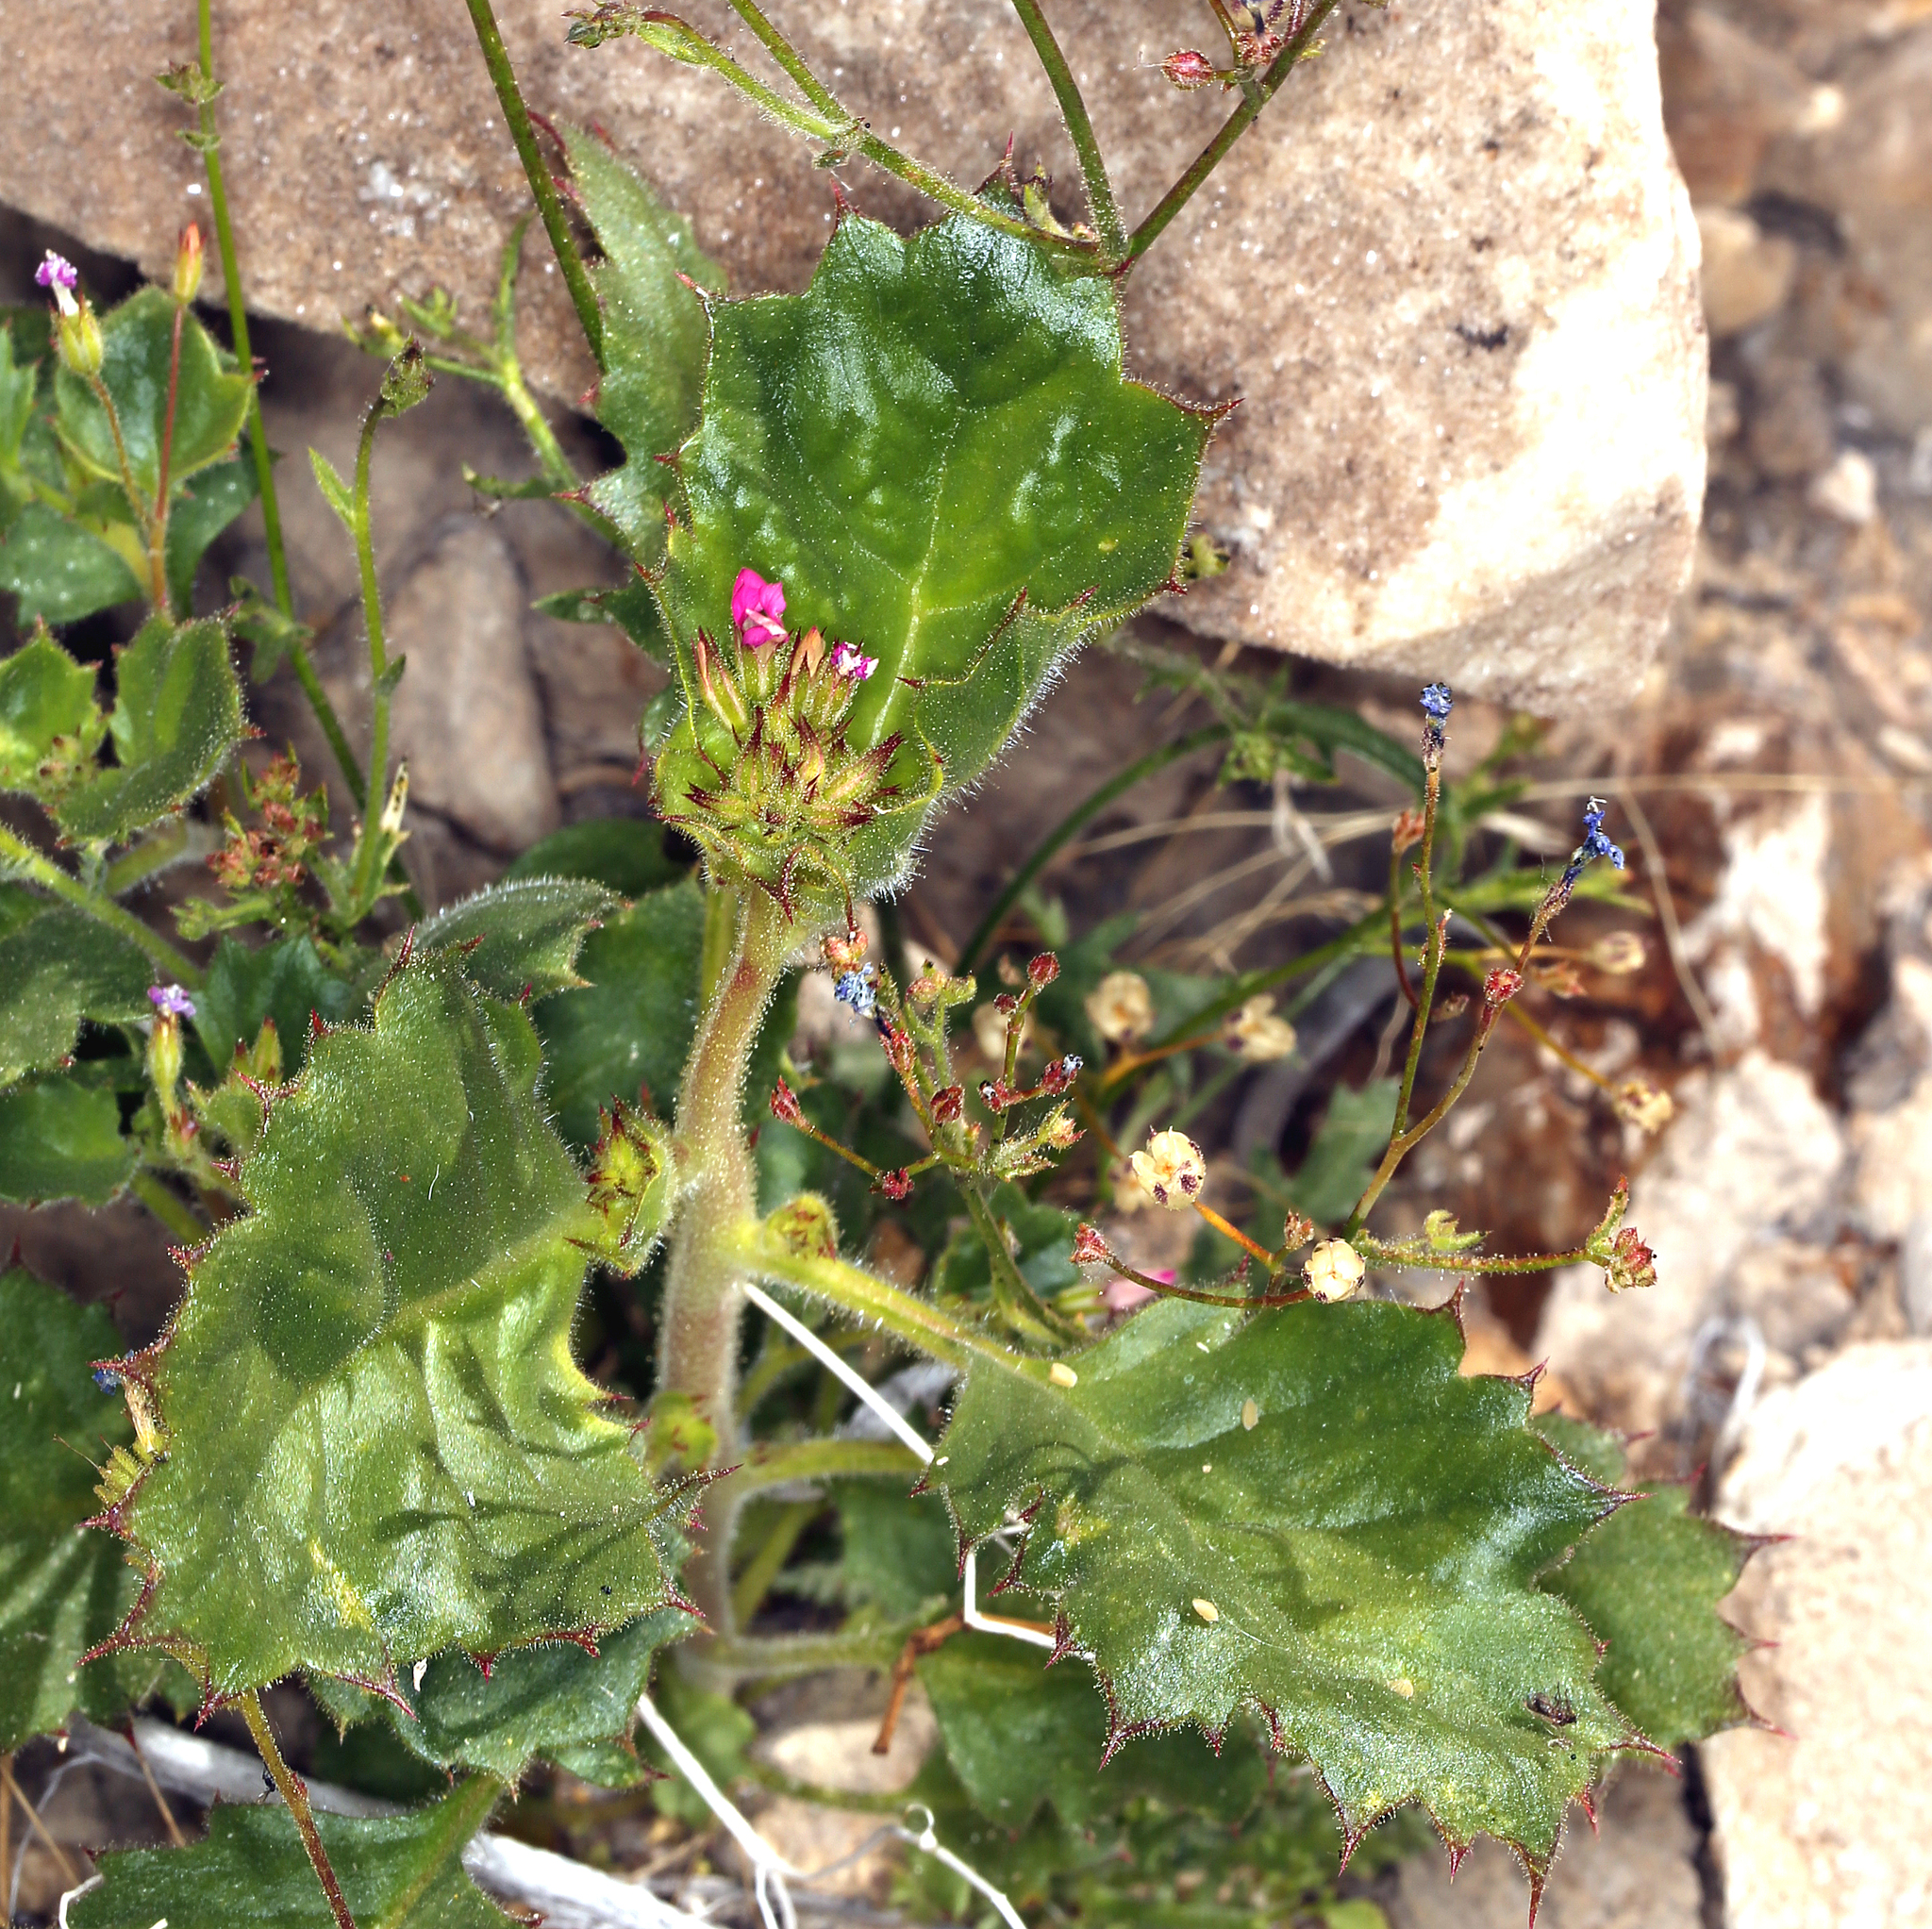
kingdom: Plantae
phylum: Tracheophyta
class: Magnoliopsida
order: Ericales
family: Polemoniaceae
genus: Aliciella
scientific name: Aliciella latifolia
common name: Broad-leaf gilia
